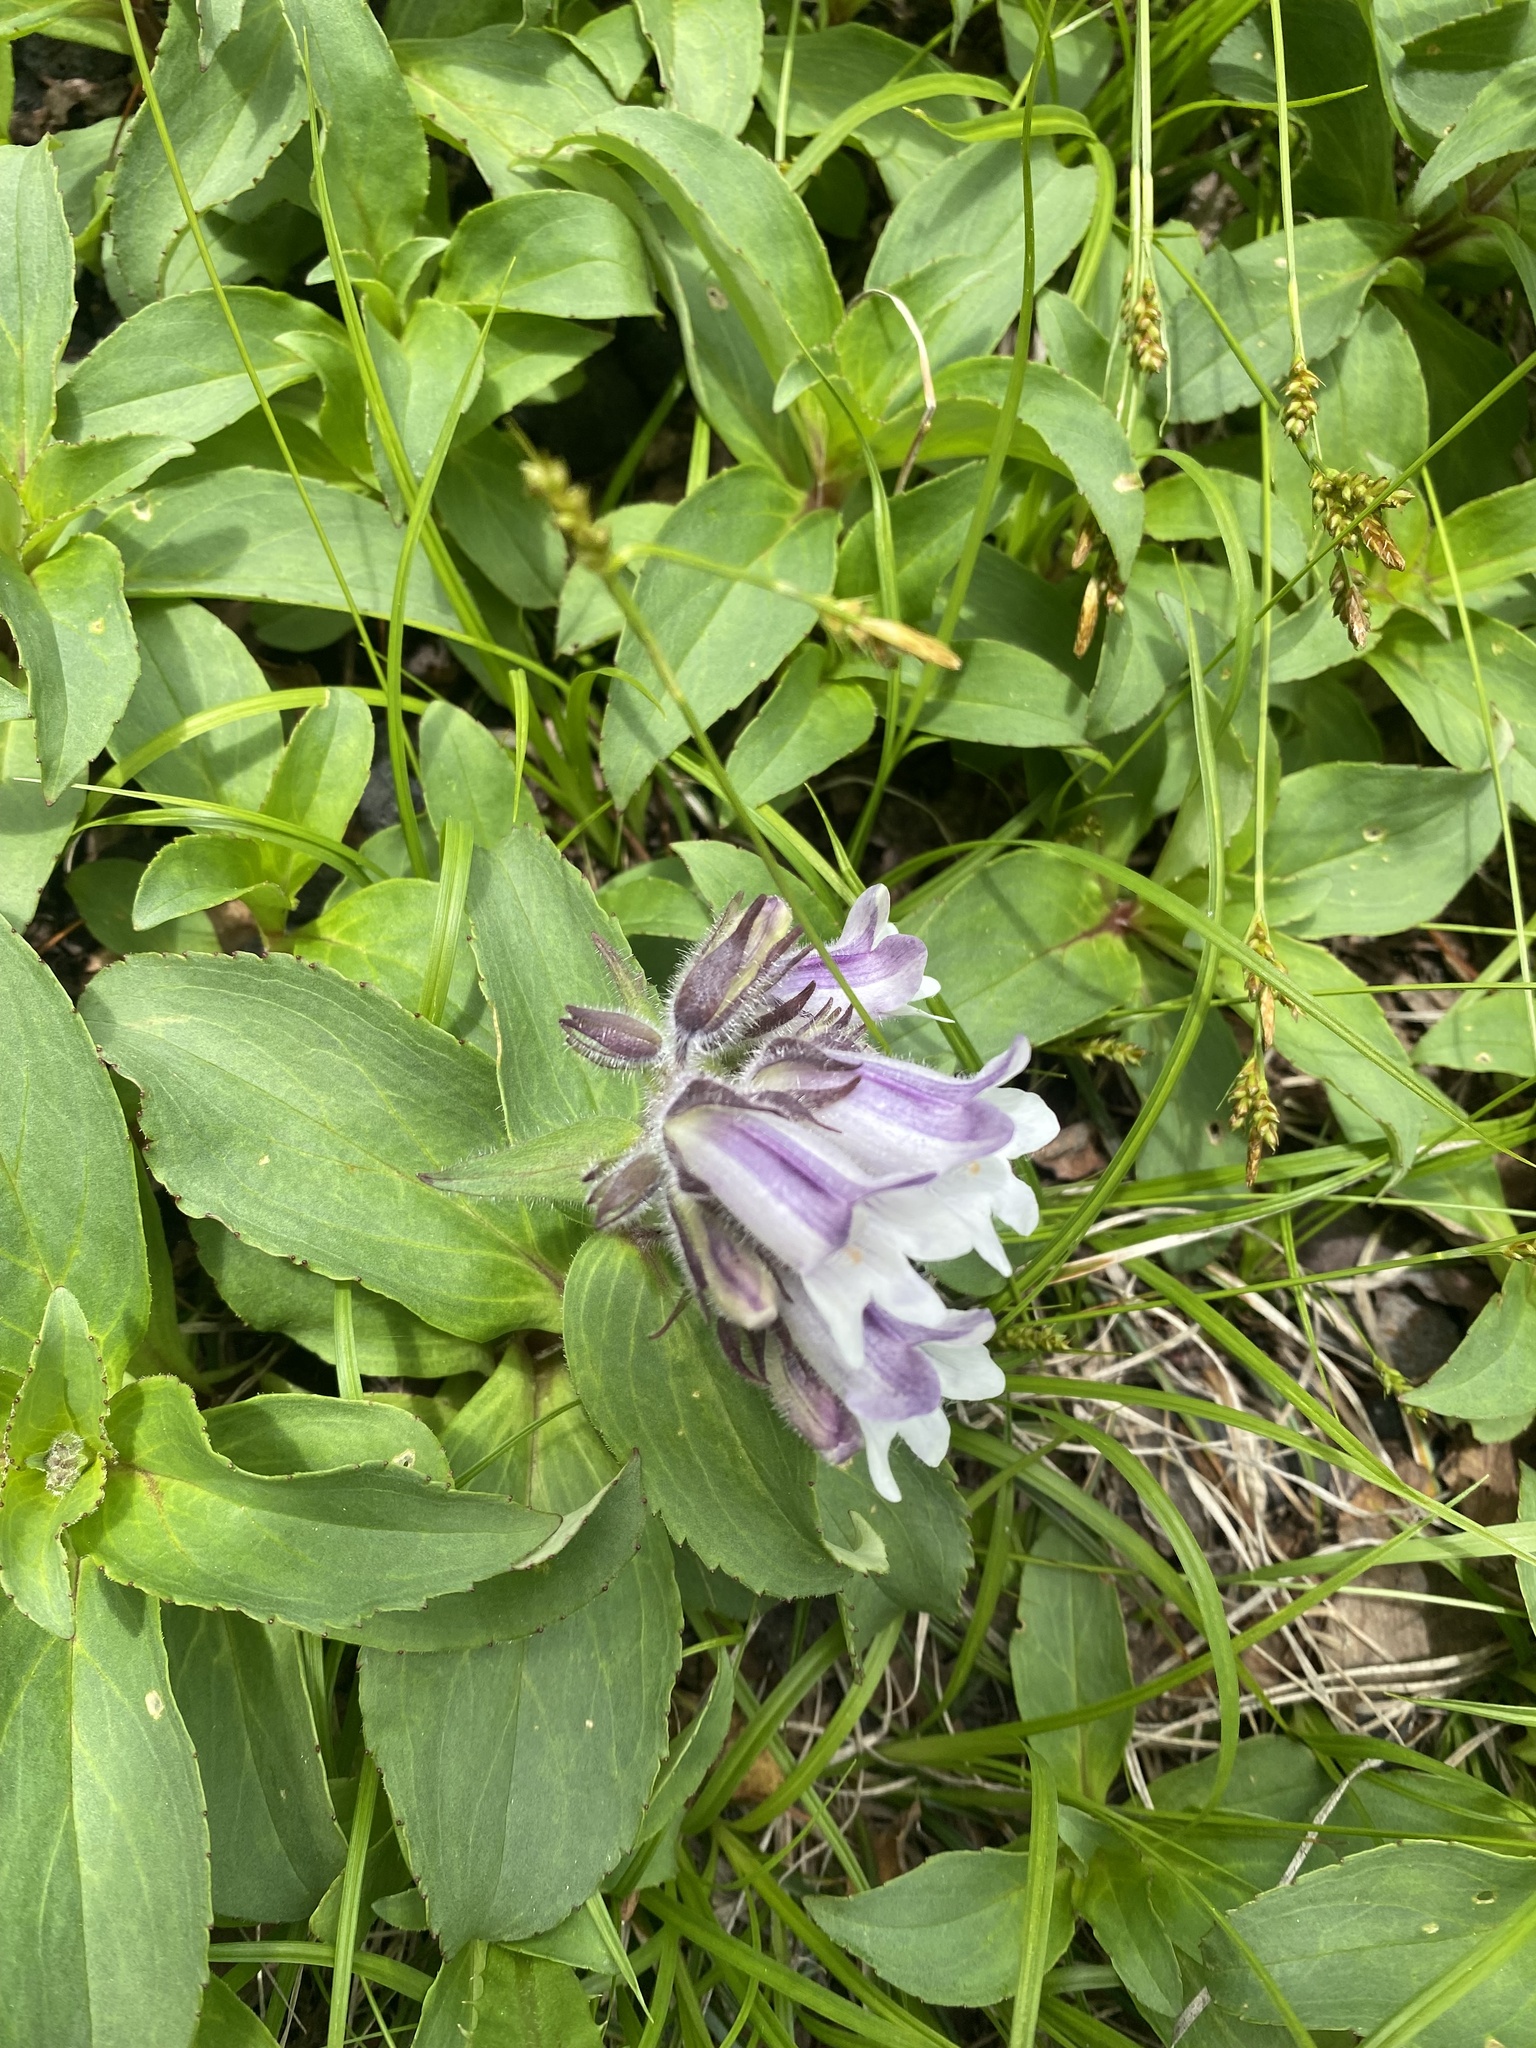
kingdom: Plantae
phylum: Tracheophyta
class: Magnoliopsida
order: Lamiales
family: Plantaginaceae
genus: Pennellianthus
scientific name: Pennellianthus frutescens
